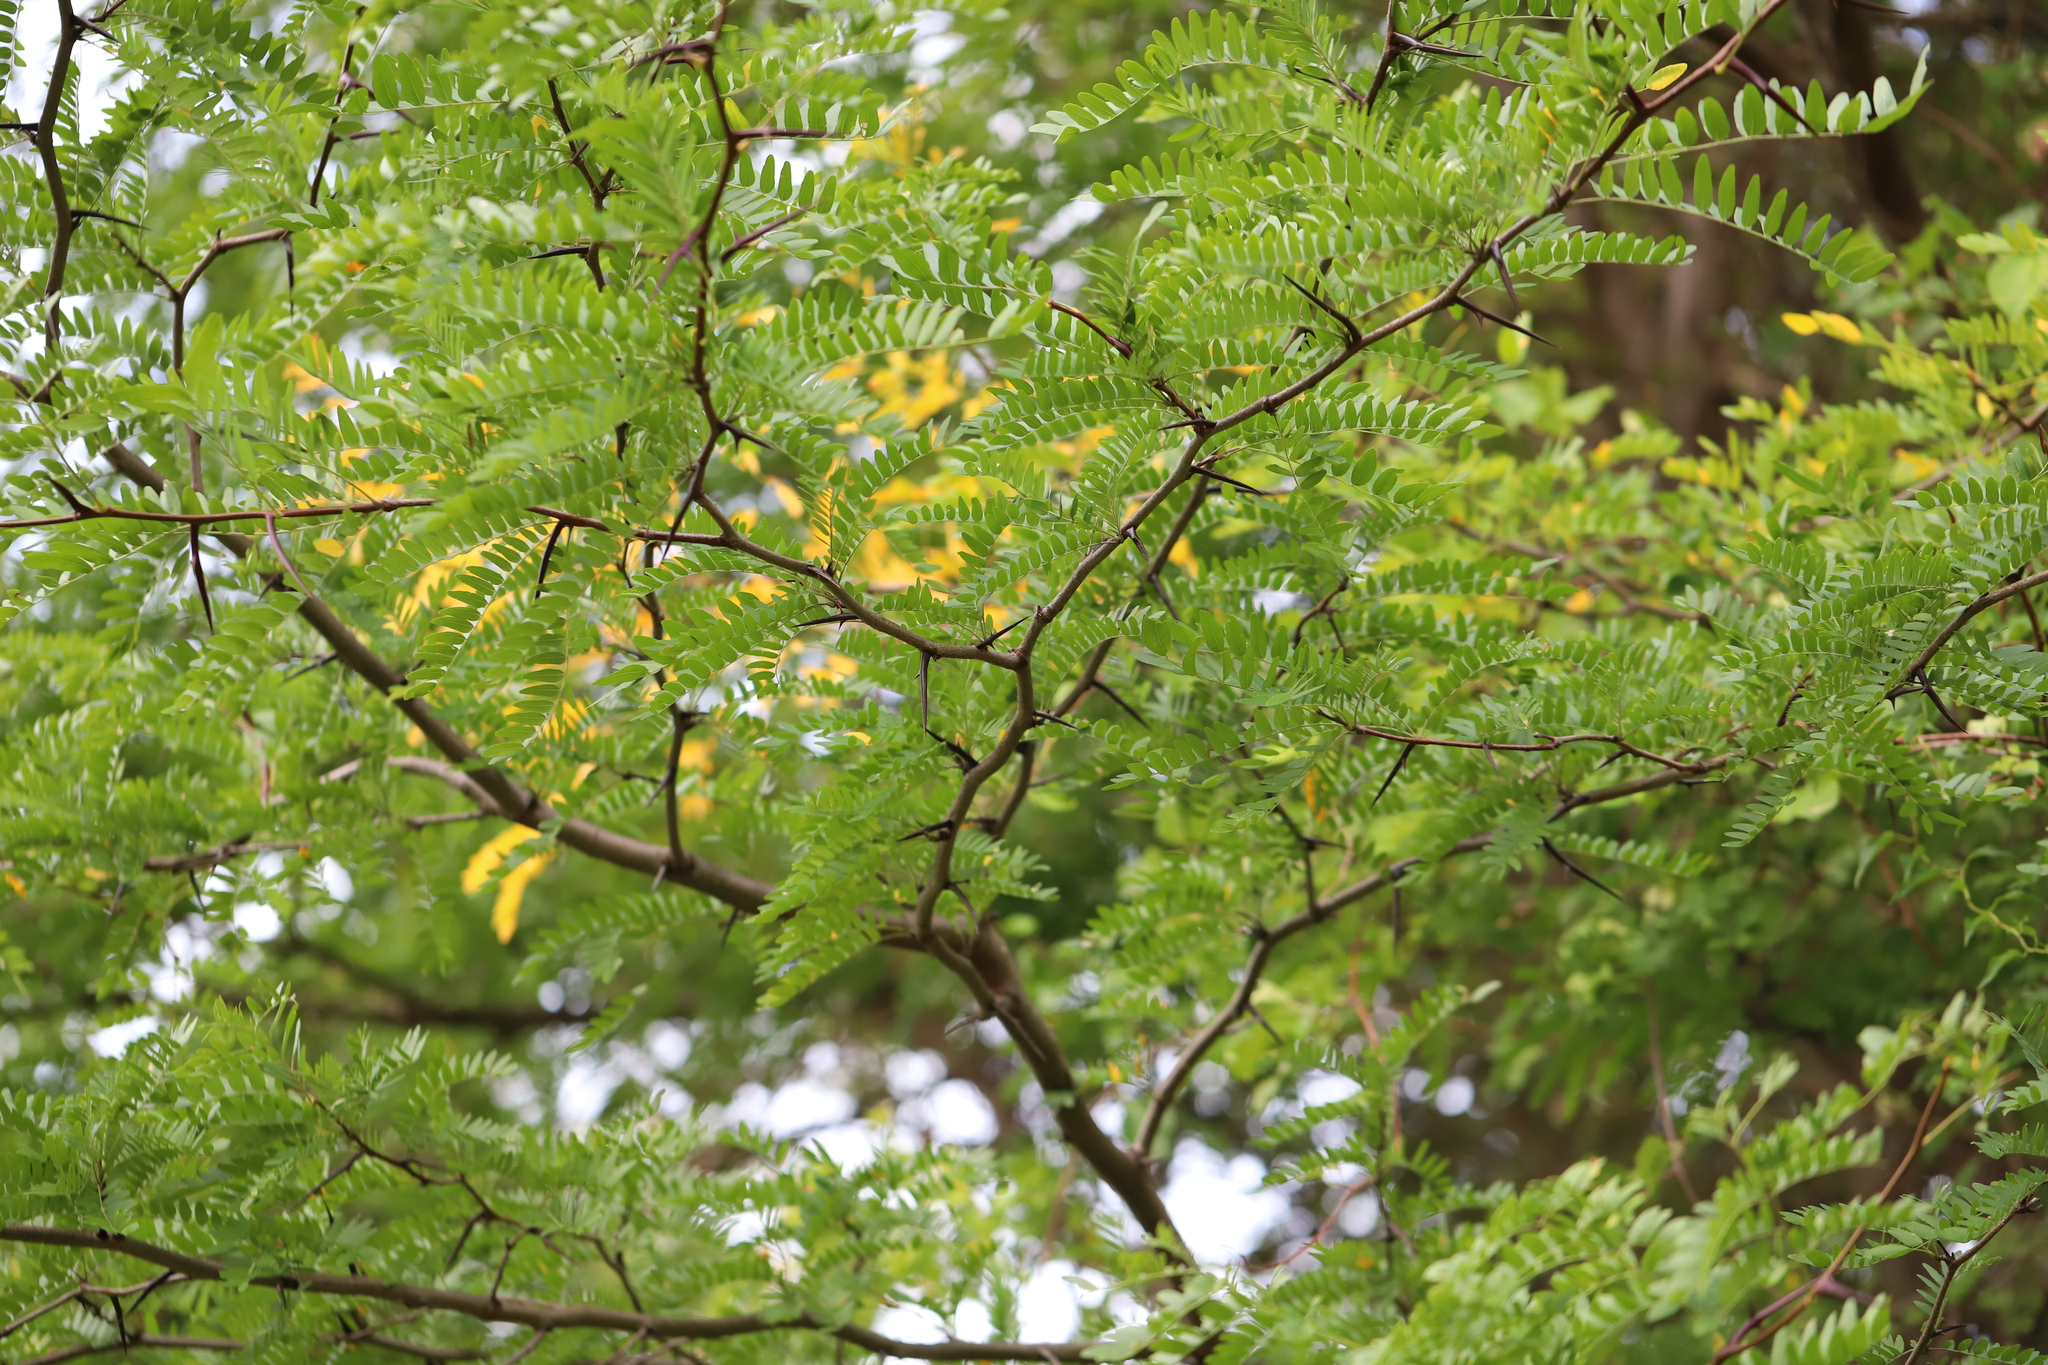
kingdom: Plantae
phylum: Tracheophyta
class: Magnoliopsida
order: Fabales
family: Fabaceae
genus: Gleditsia
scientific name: Gleditsia triacanthos
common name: Common honeylocust
